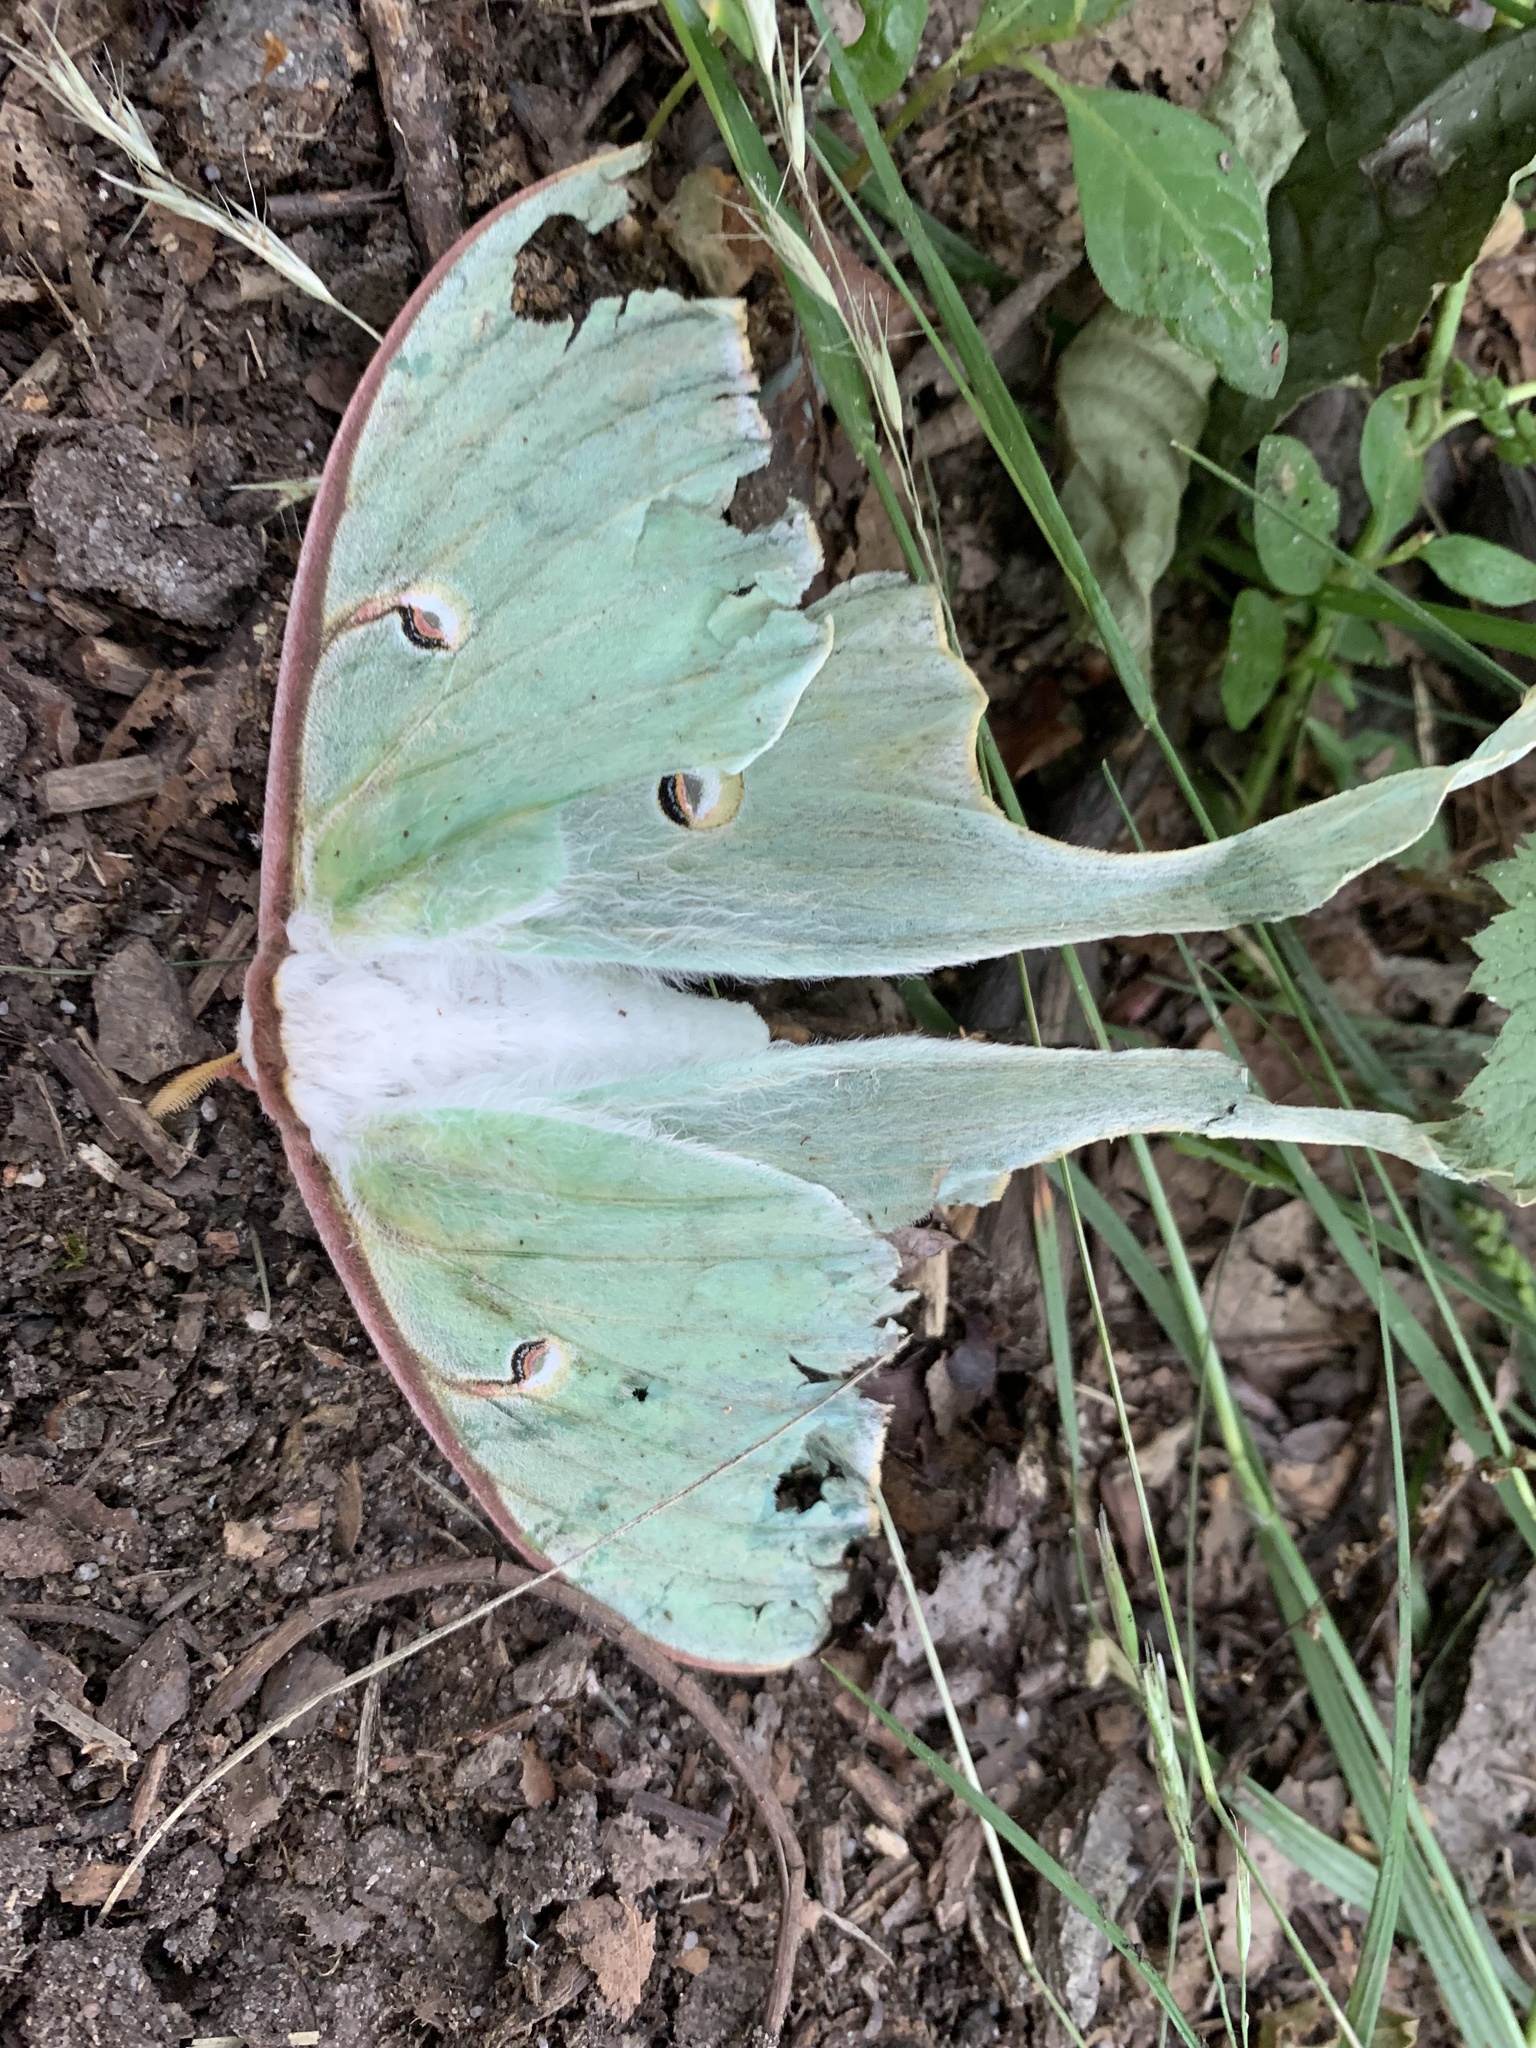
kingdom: Animalia
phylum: Arthropoda
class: Insecta
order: Lepidoptera
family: Saturniidae
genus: Actias
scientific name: Actias luna
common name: Luna moth
